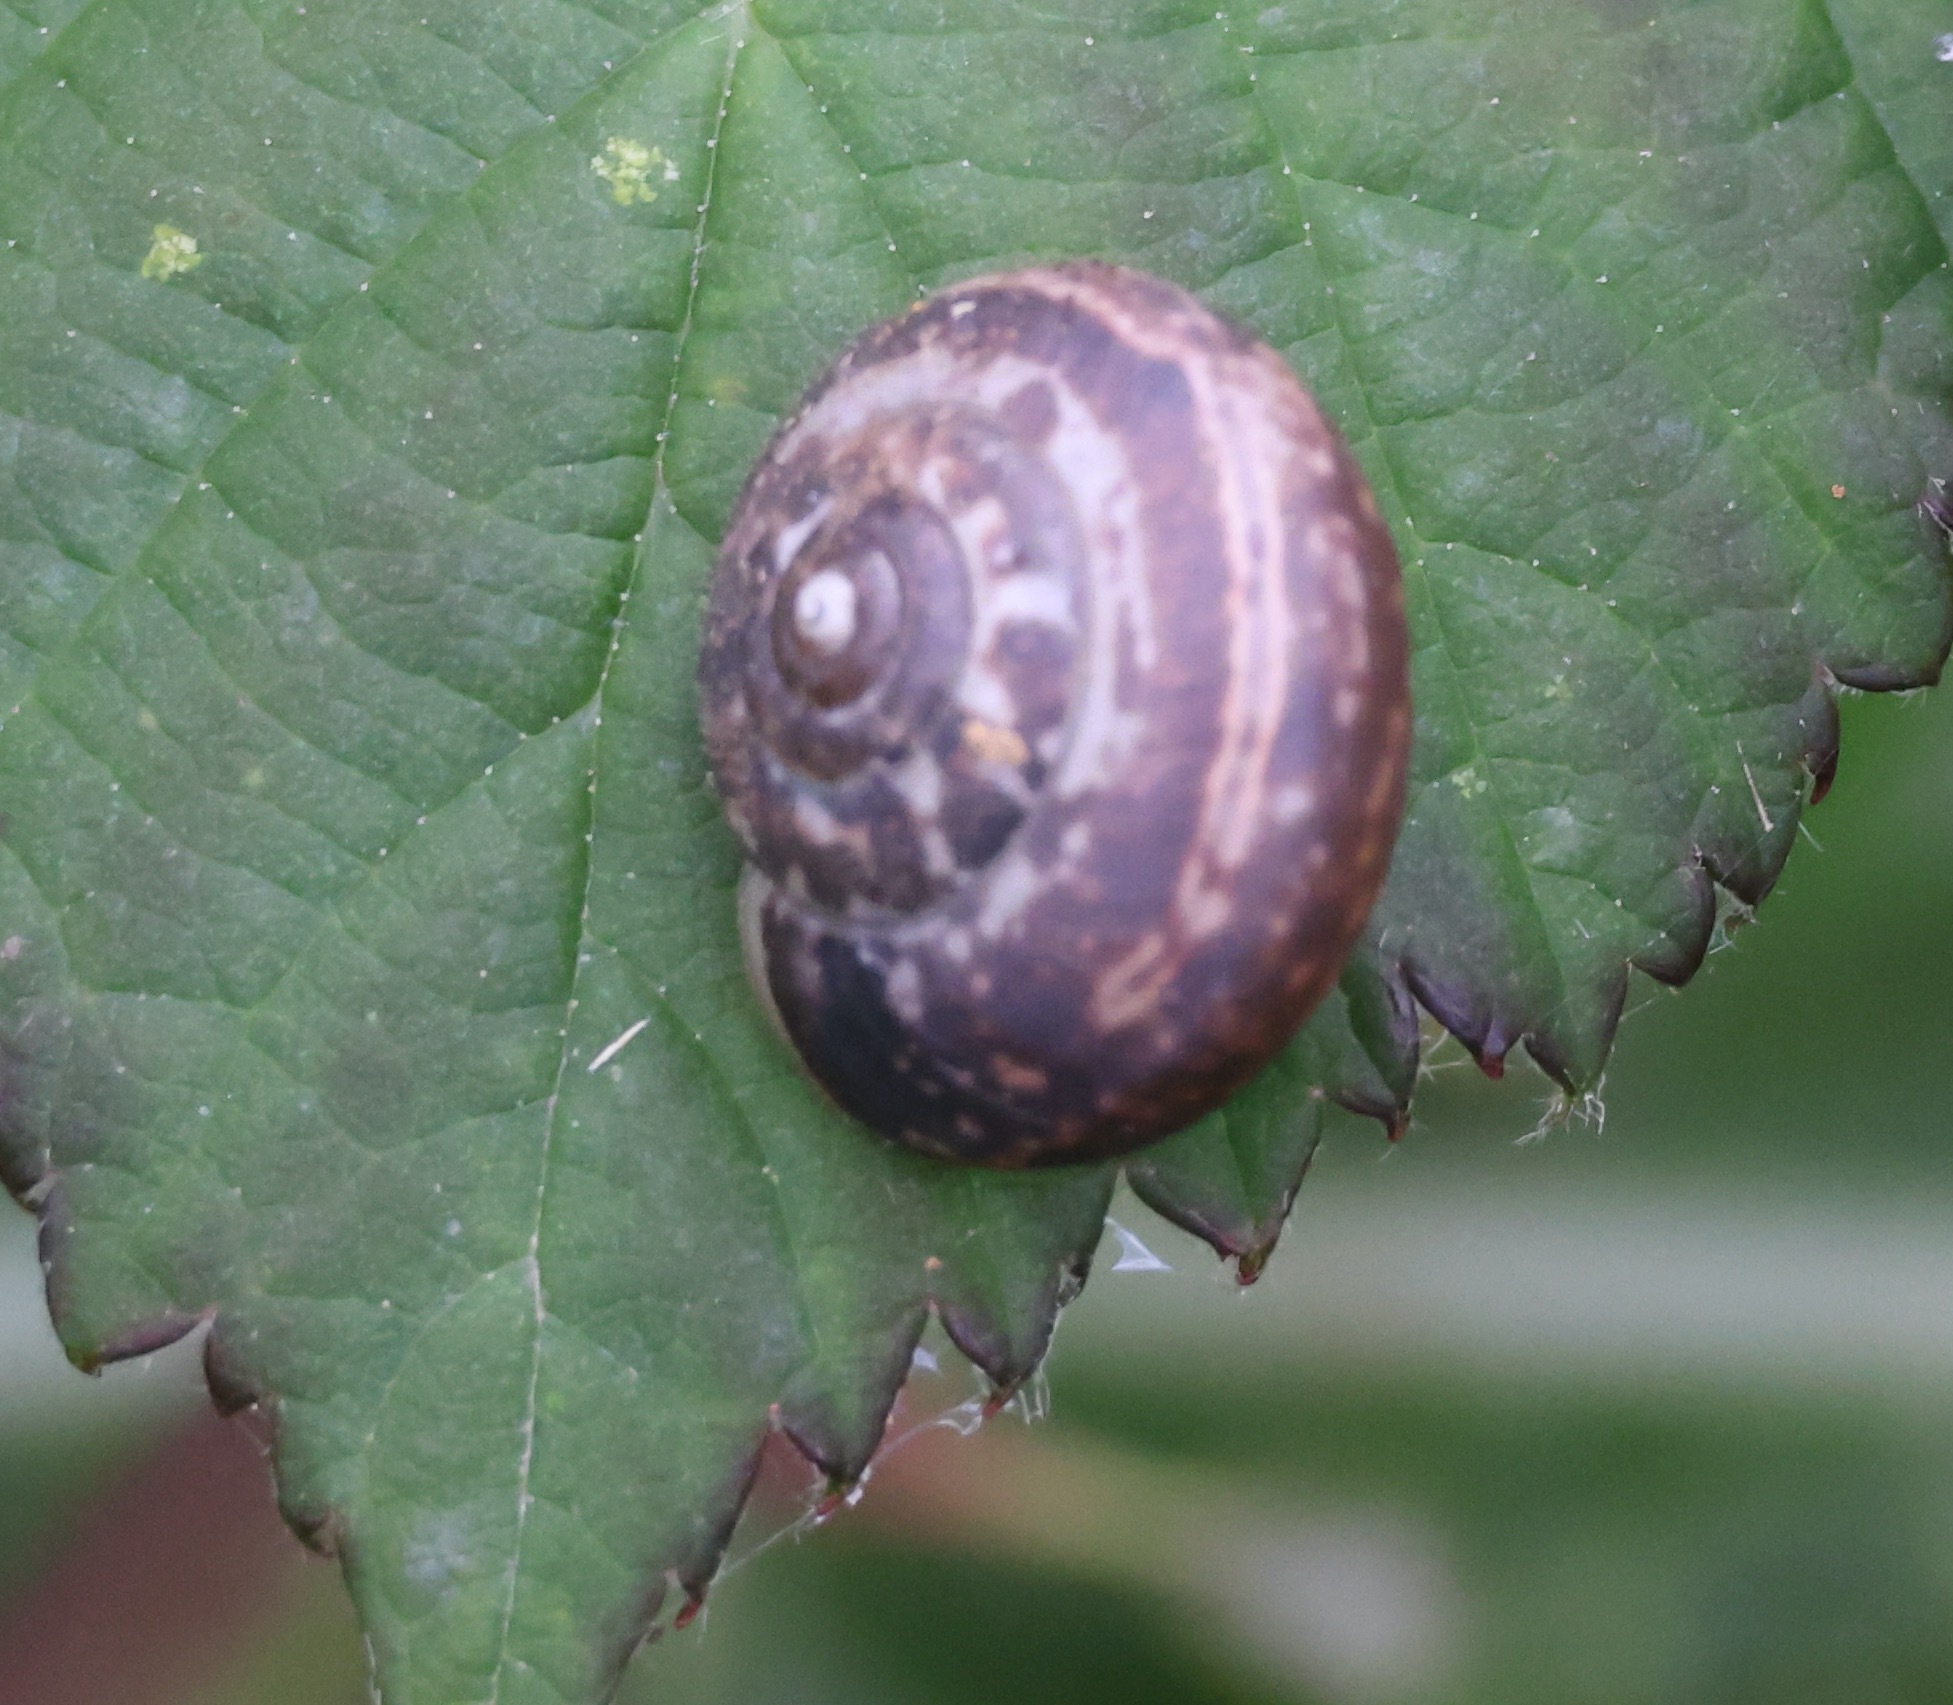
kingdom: Animalia
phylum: Mollusca
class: Gastropoda
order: Stylommatophora
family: Hygromiidae
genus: Monacha
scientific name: Monacha cantiana
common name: Kentish snail
